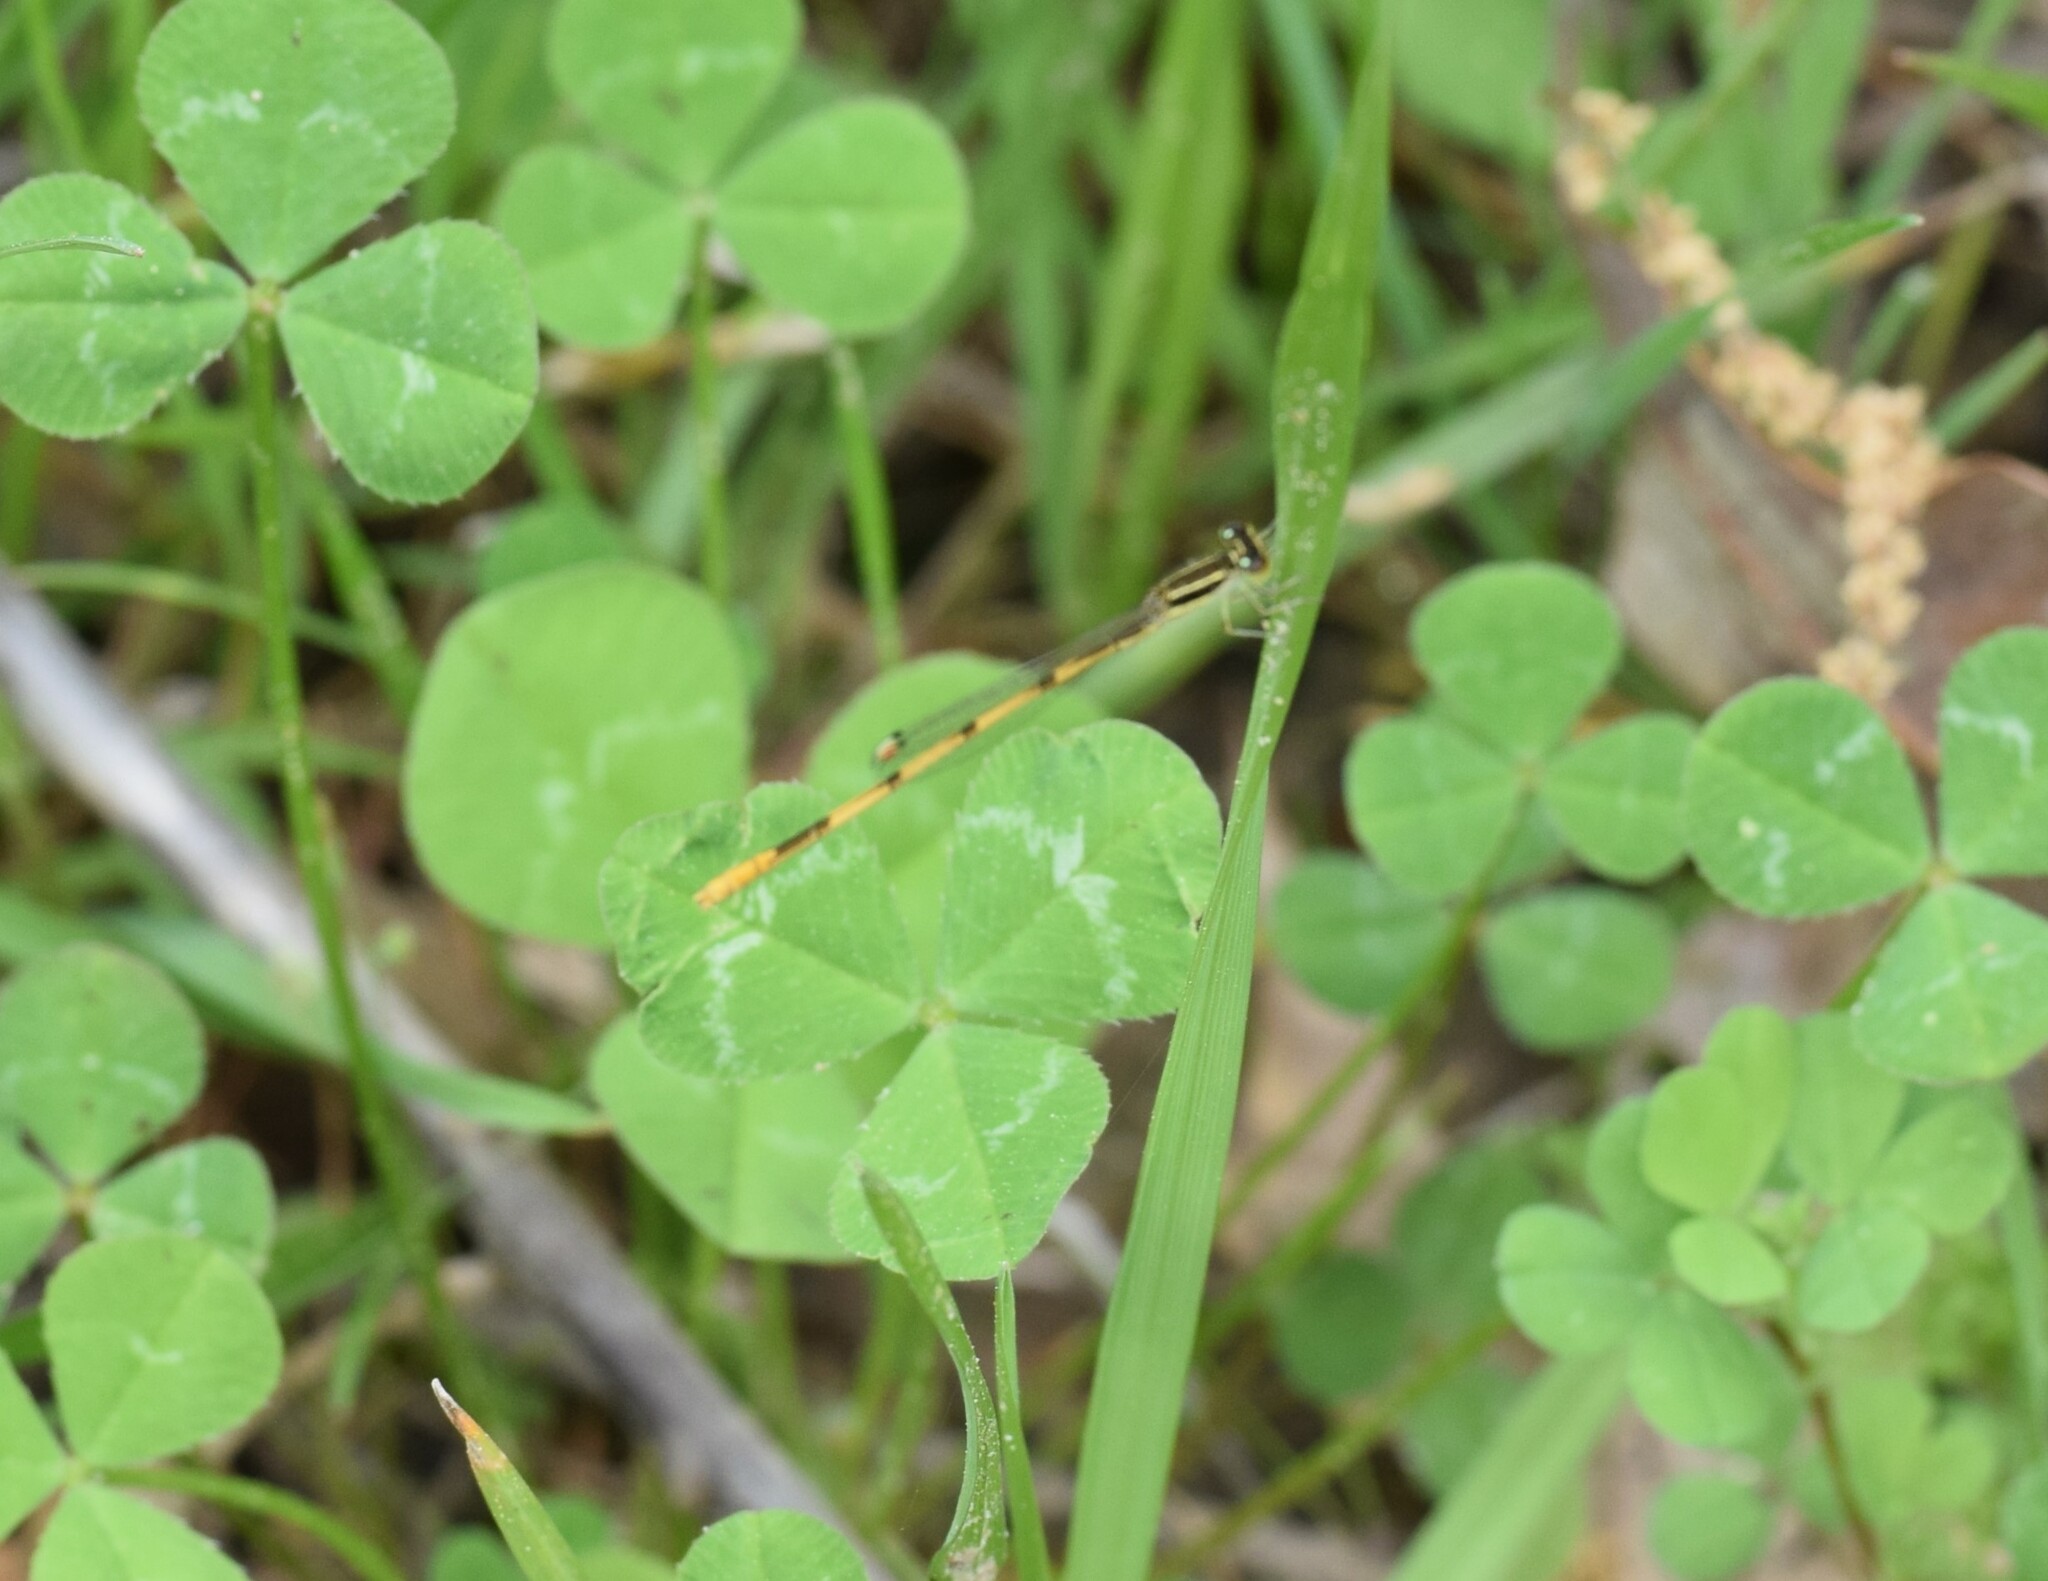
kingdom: Animalia
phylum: Arthropoda
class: Insecta
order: Odonata
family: Coenagrionidae
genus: Ischnura
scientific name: Ischnura hastata
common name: Citrine forktail
